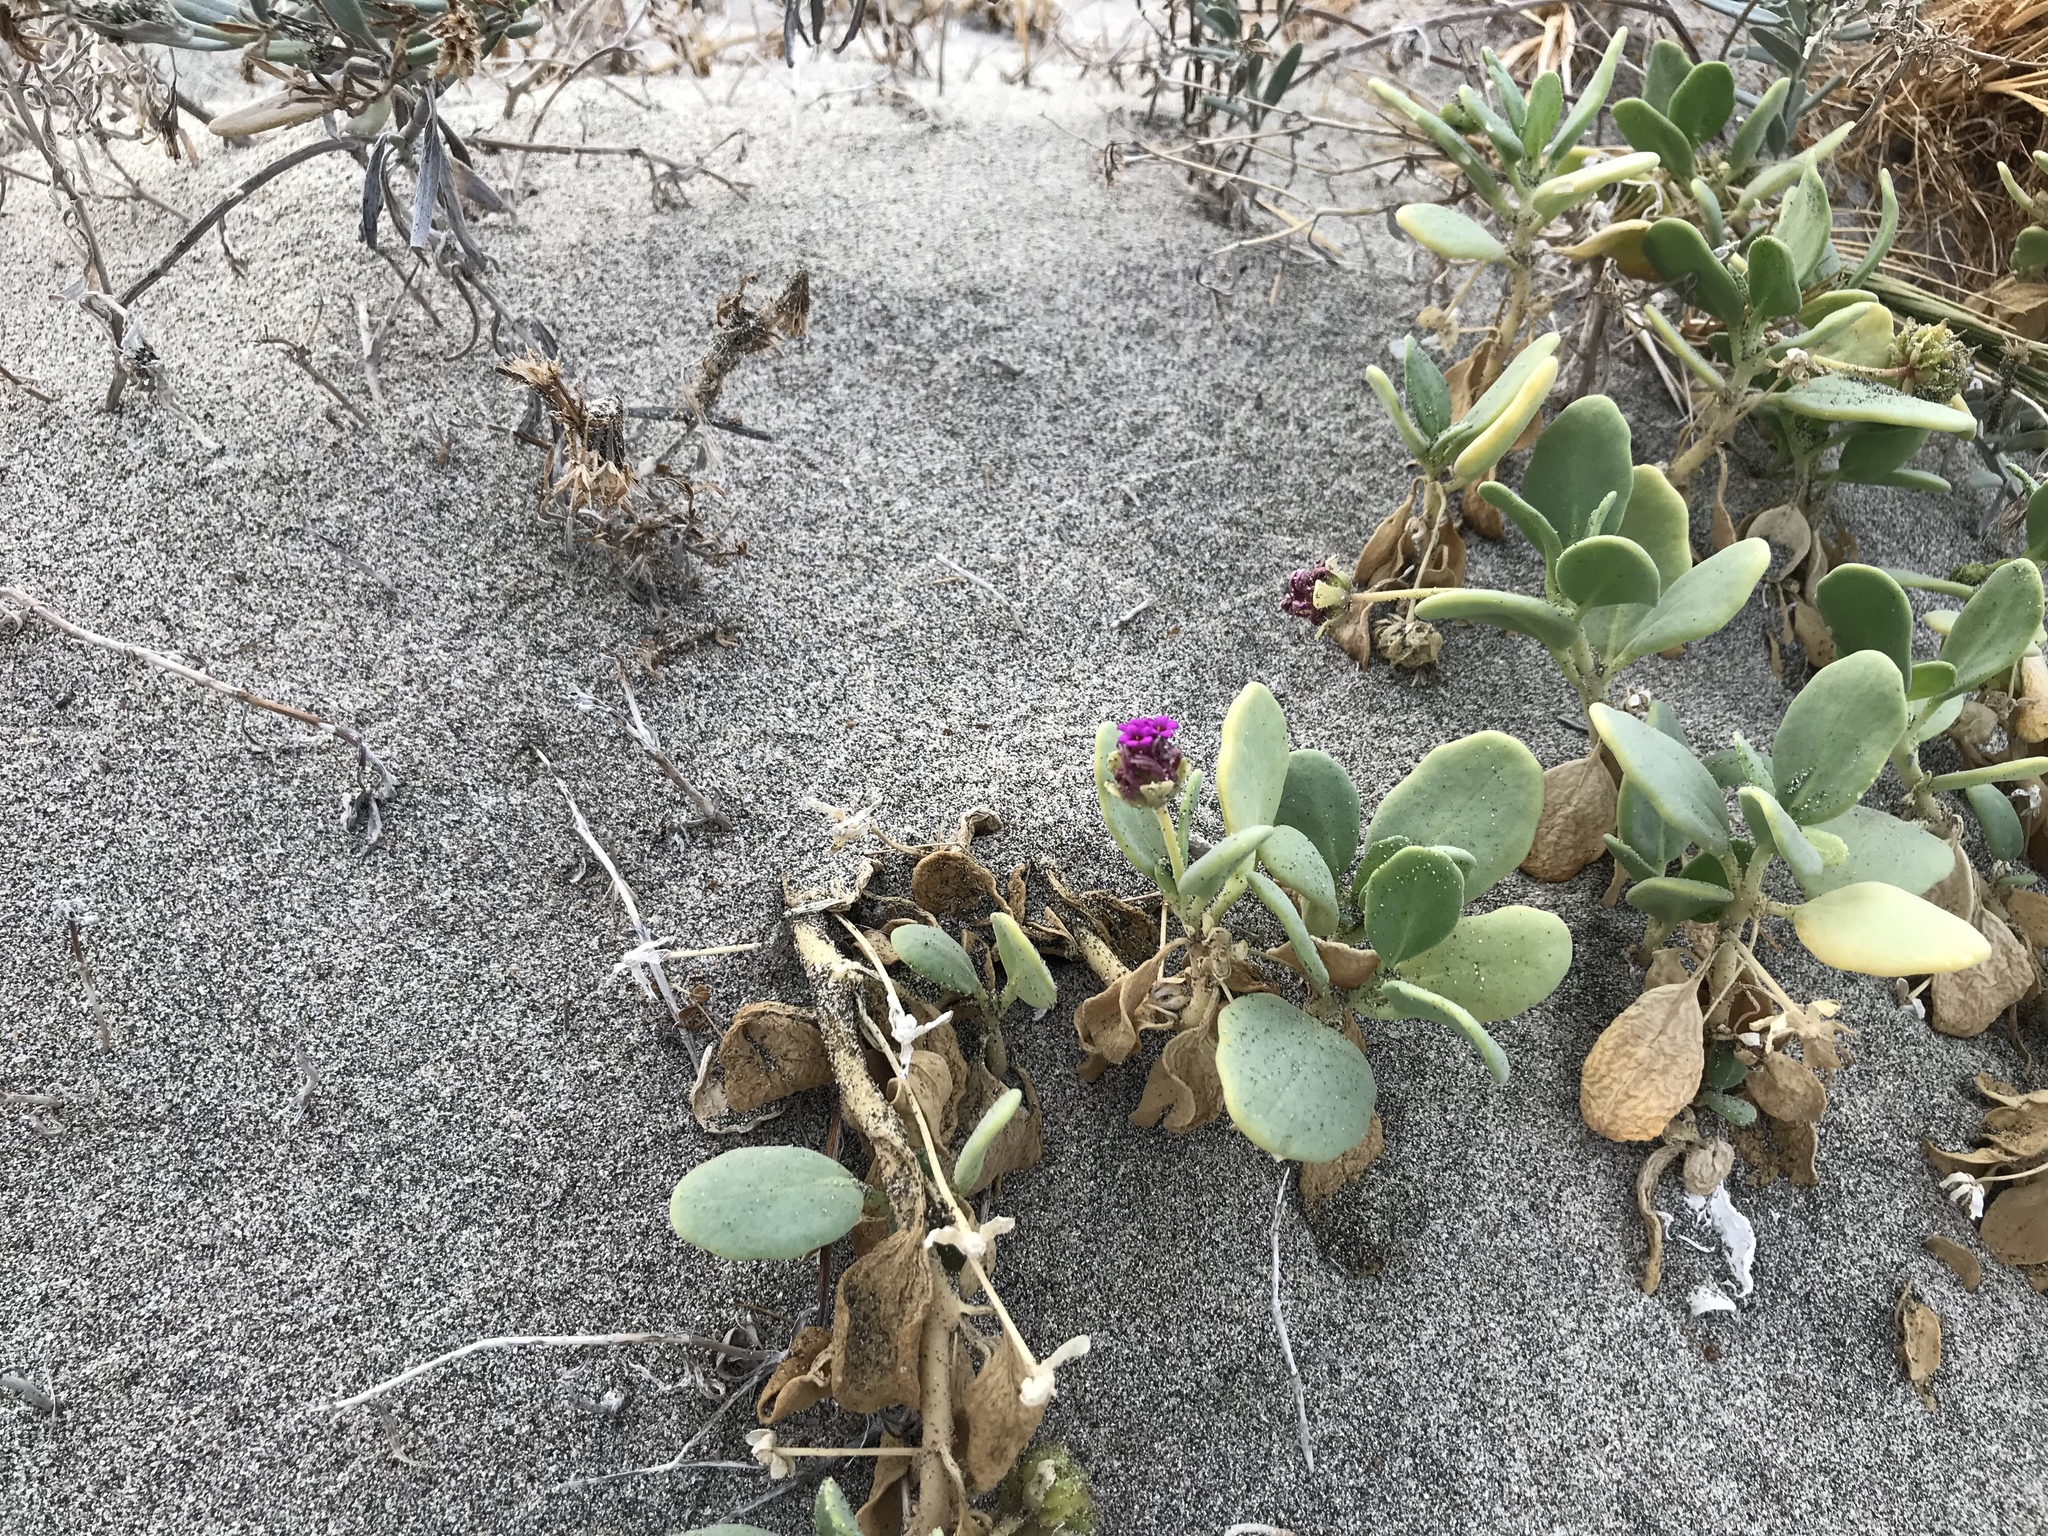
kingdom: Plantae
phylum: Tracheophyta
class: Magnoliopsida
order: Caryophyllales
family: Nyctaginaceae
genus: Abronia
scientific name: Abronia maritima
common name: Red sand-verbena
